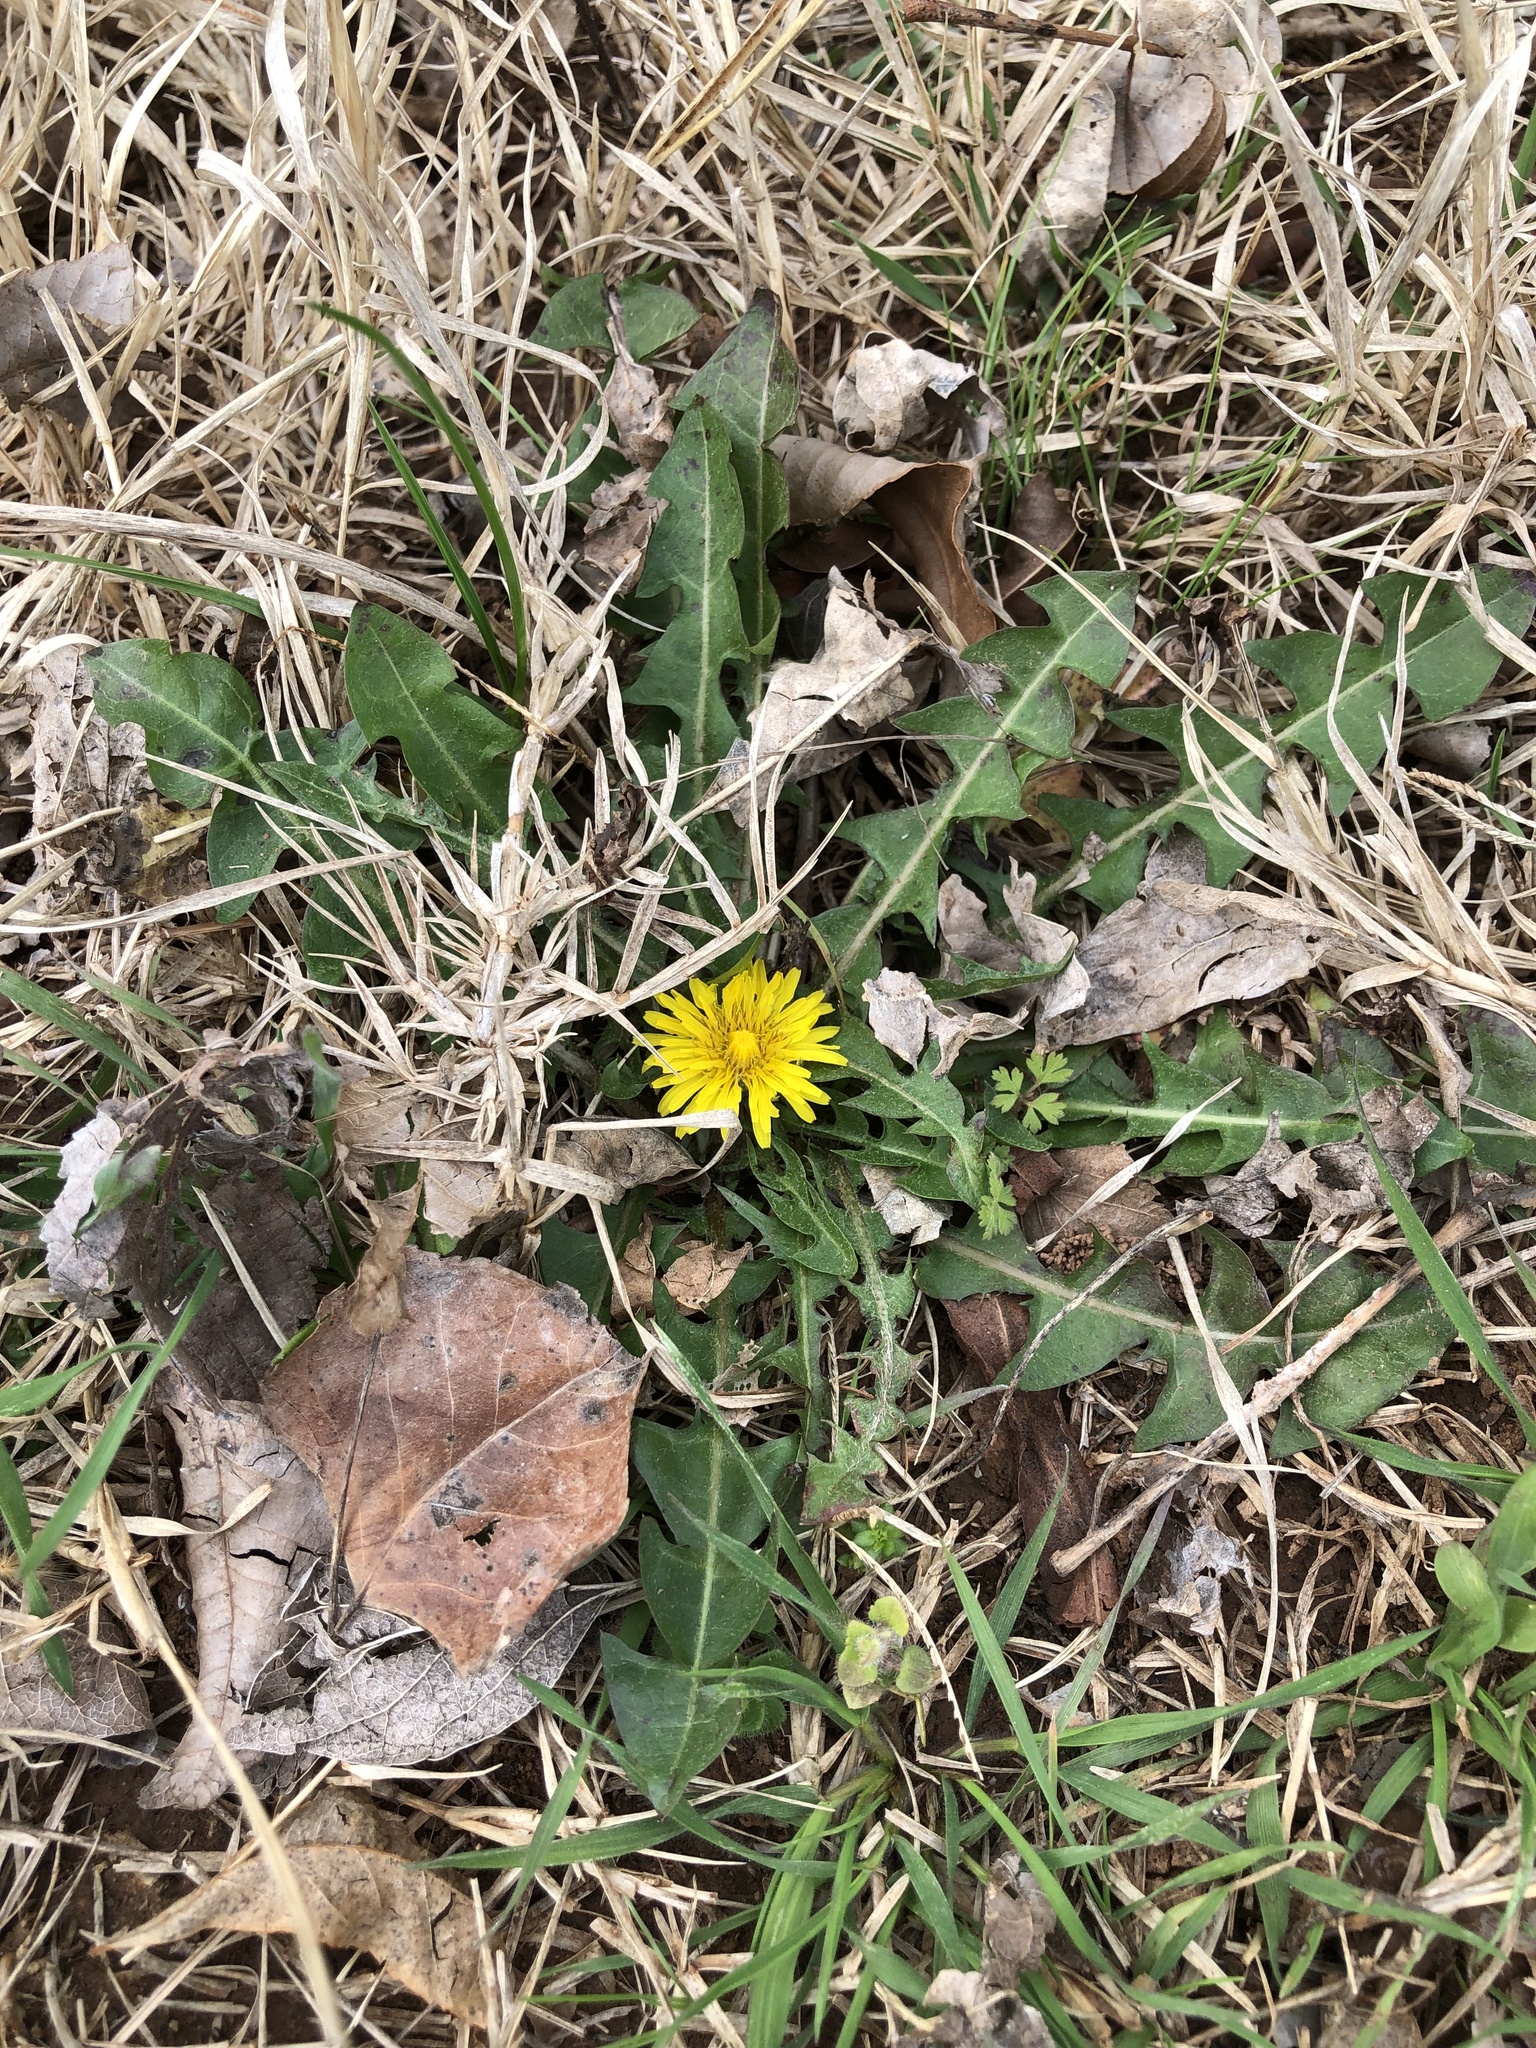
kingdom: Plantae
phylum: Tracheophyta
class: Magnoliopsida
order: Asterales
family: Asteraceae
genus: Taraxacum
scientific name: Taraxacum
